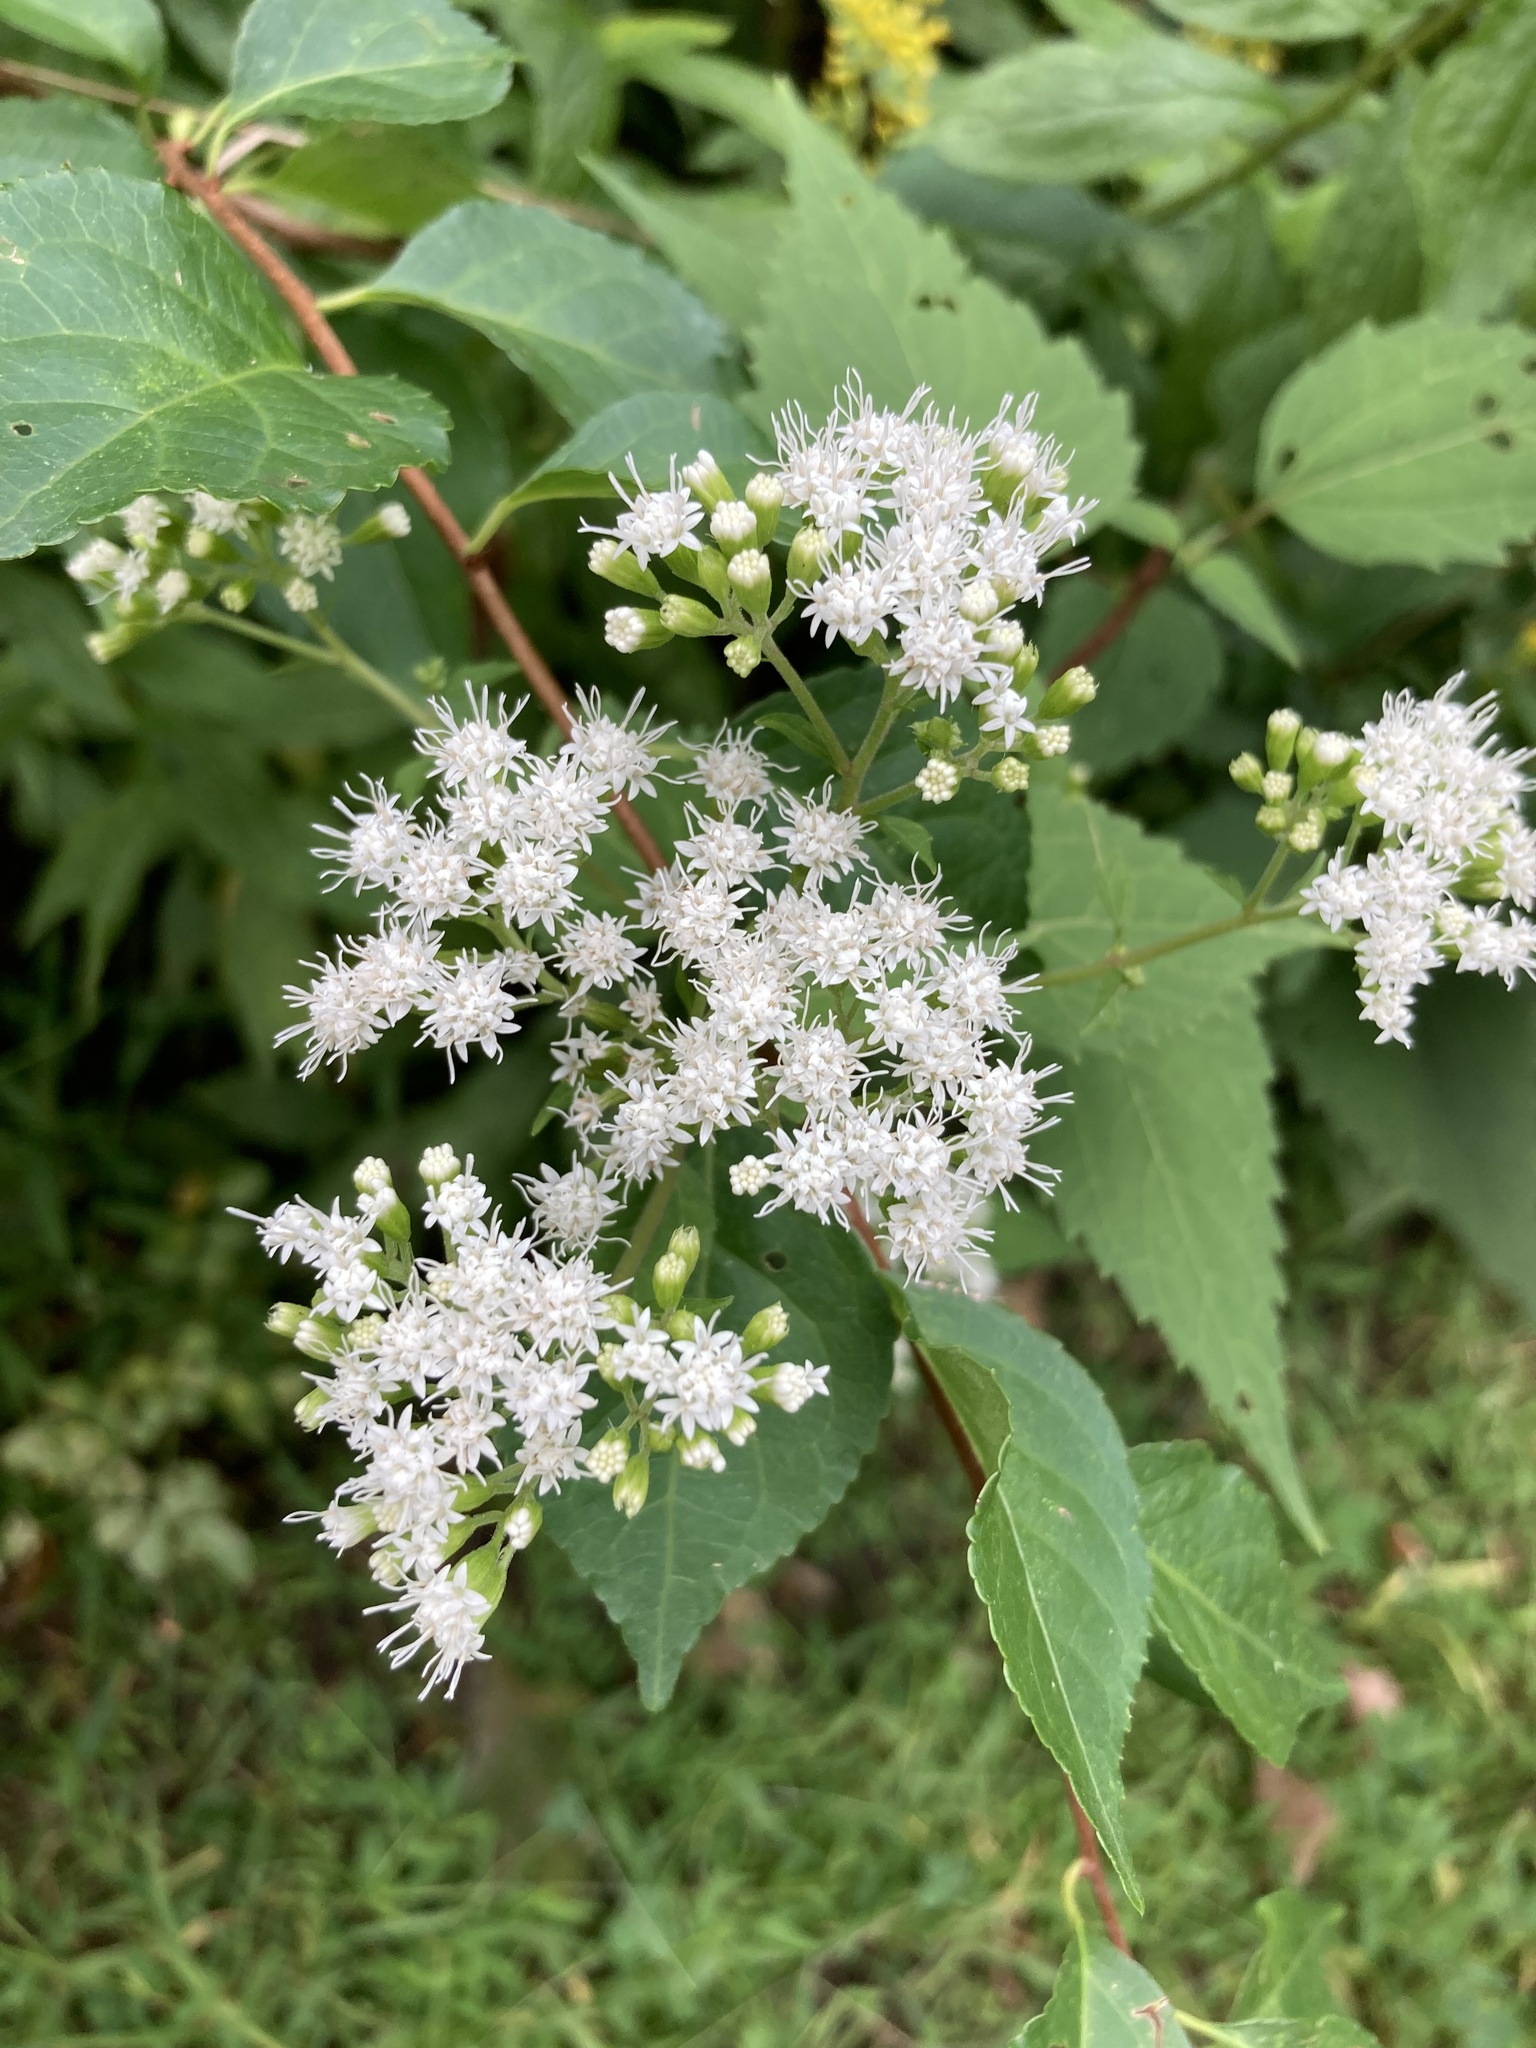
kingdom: Plantae
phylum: Tracheophyta
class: Magnoliopsida
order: Asterales
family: Asteraceae
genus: Ageratina
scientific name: Ageratina altissima
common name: White snakeroot
